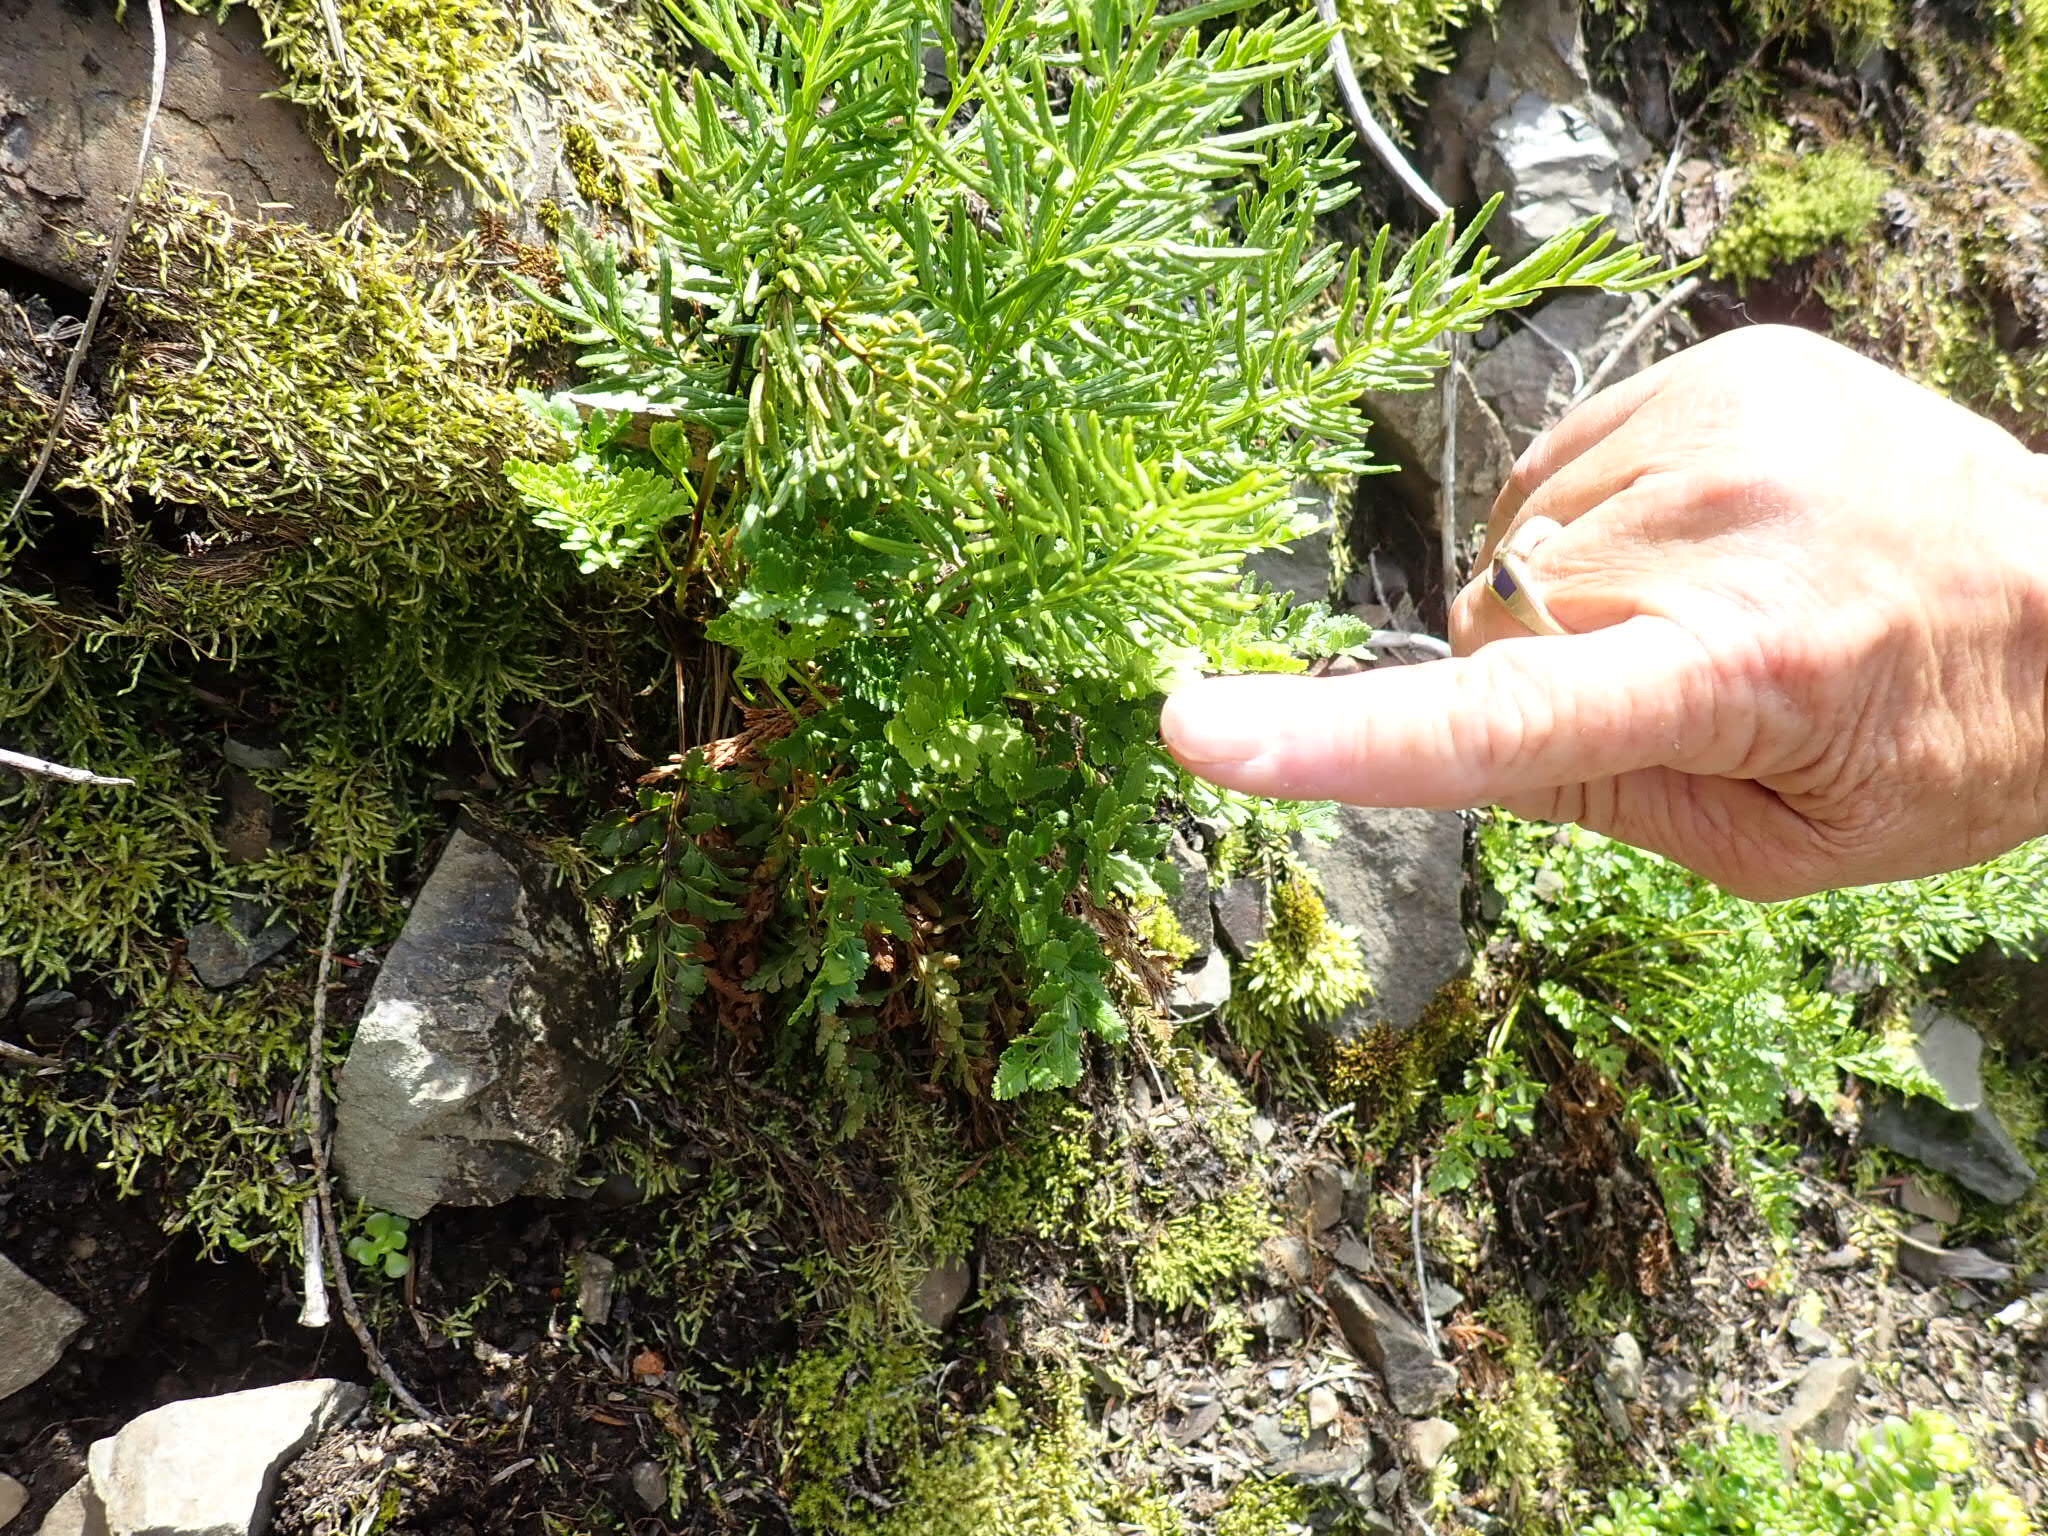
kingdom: Plantae
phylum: Tracheophyta
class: Polypodiopsida
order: Polypodiales
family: Pteridaceae
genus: Cryptogramma
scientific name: Cryptogramma acrostichoides
